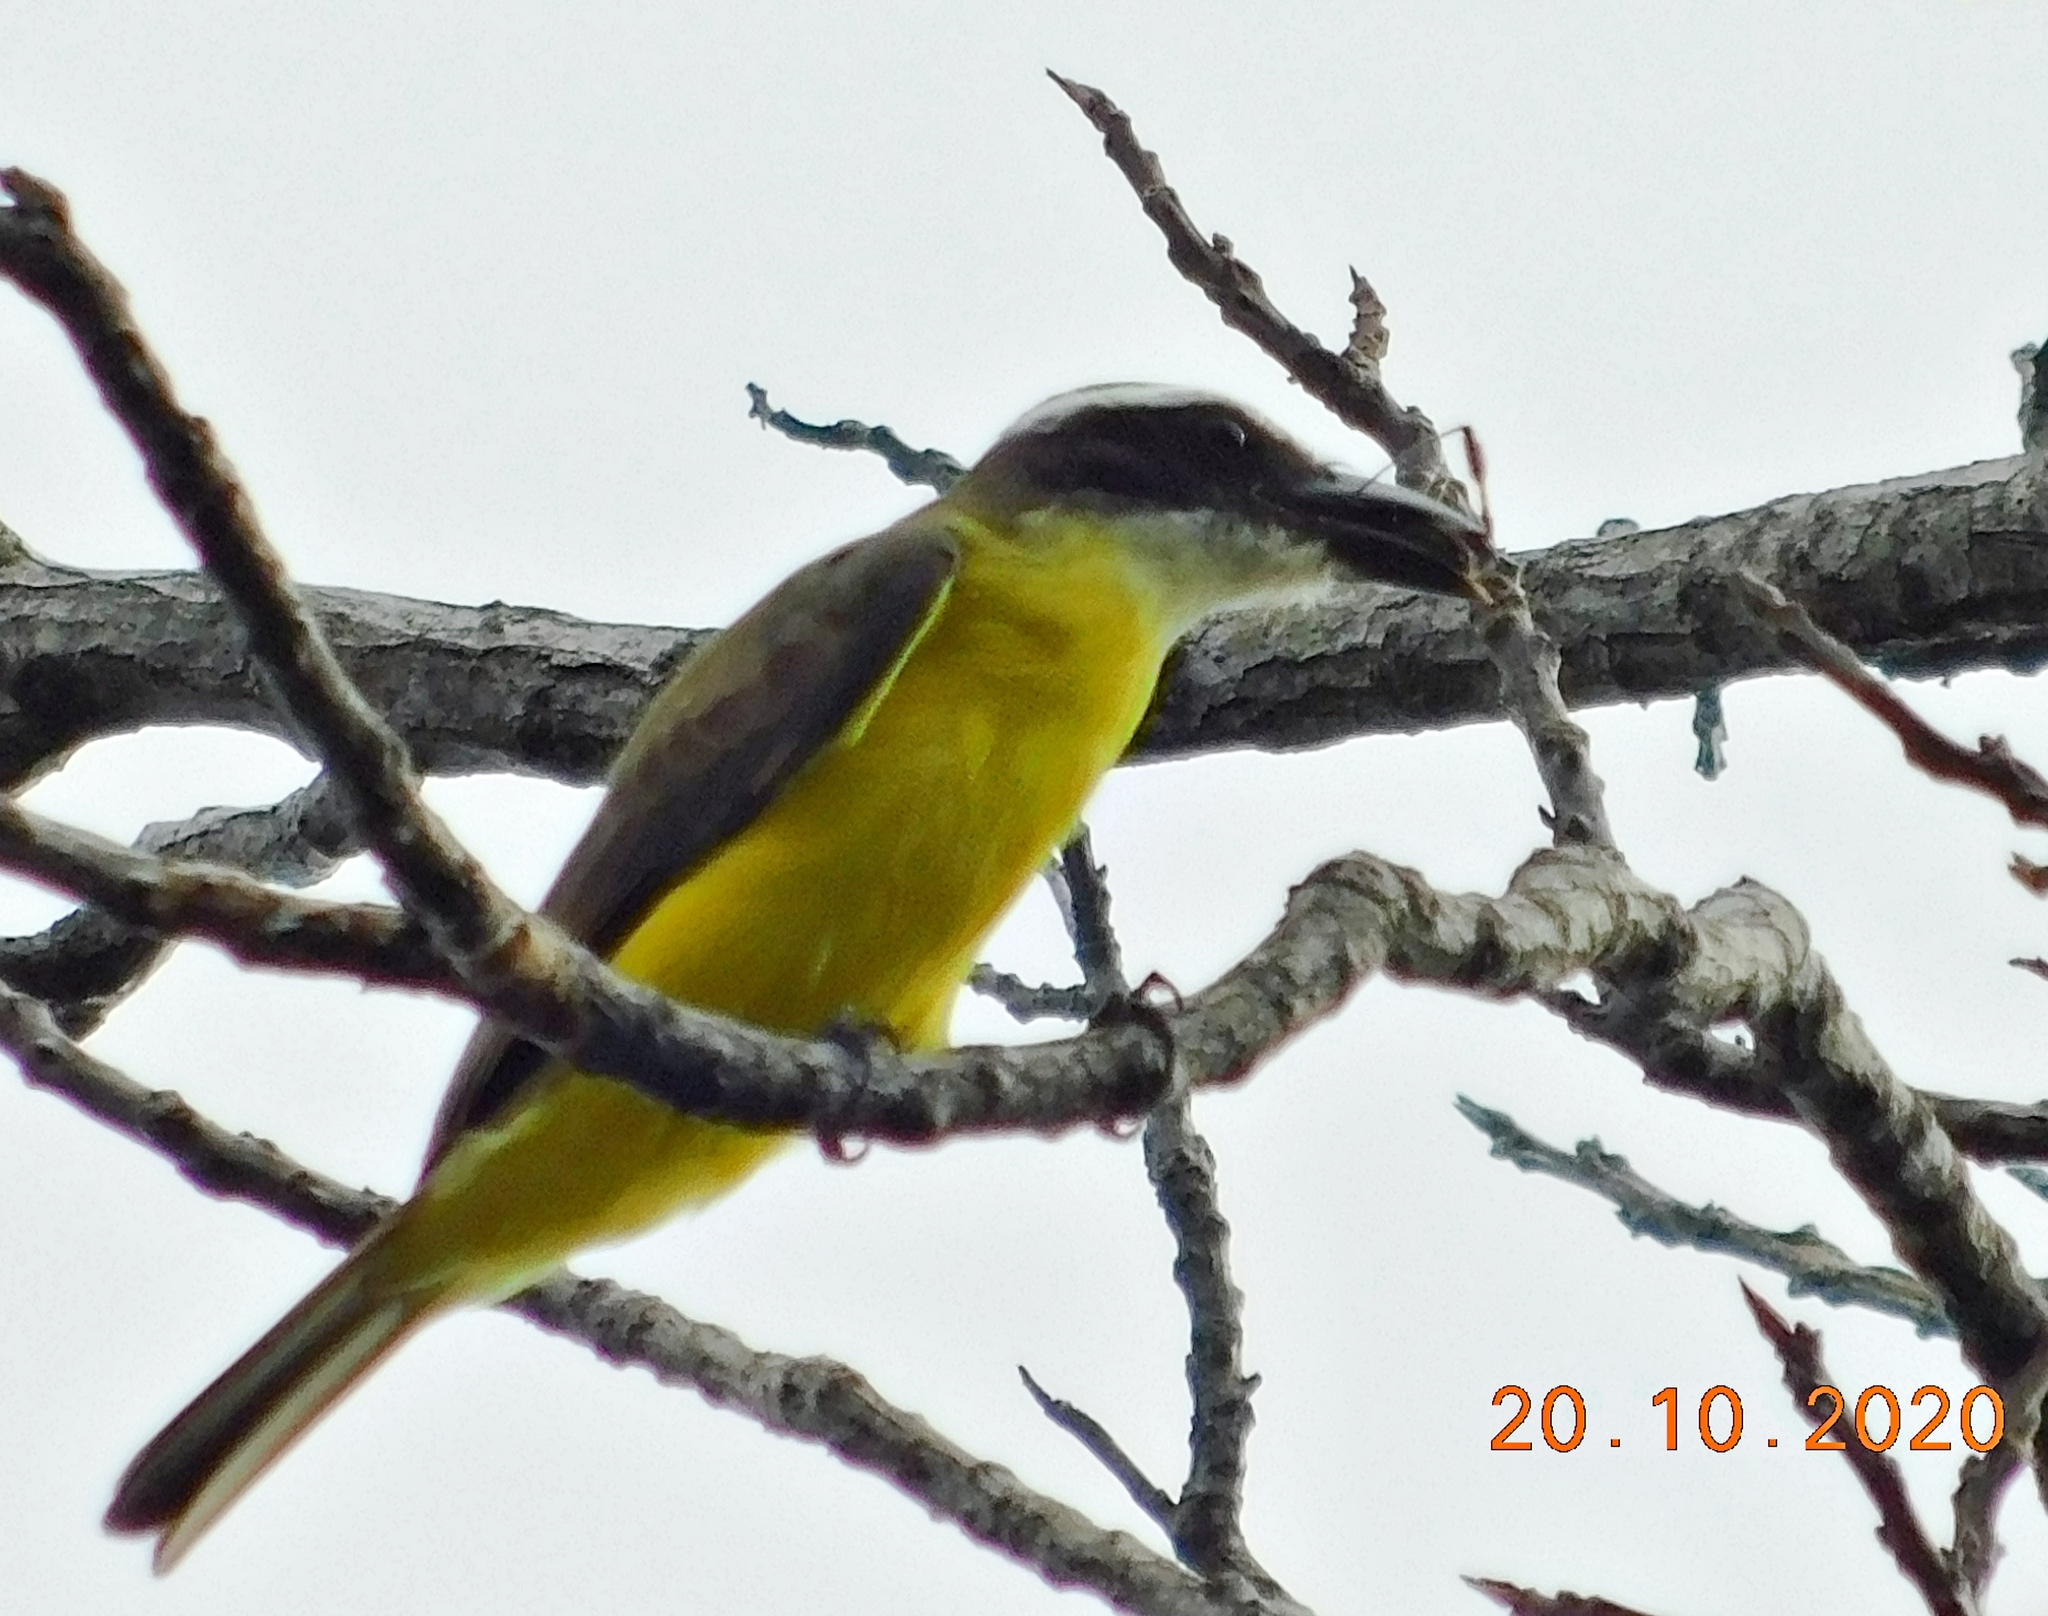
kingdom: Animalia
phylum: Chordata
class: Aves
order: Passeriformes
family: Tyrannidae
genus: Megarynchus
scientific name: Megarynchus pitangua
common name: Boat-billed flycatcher
